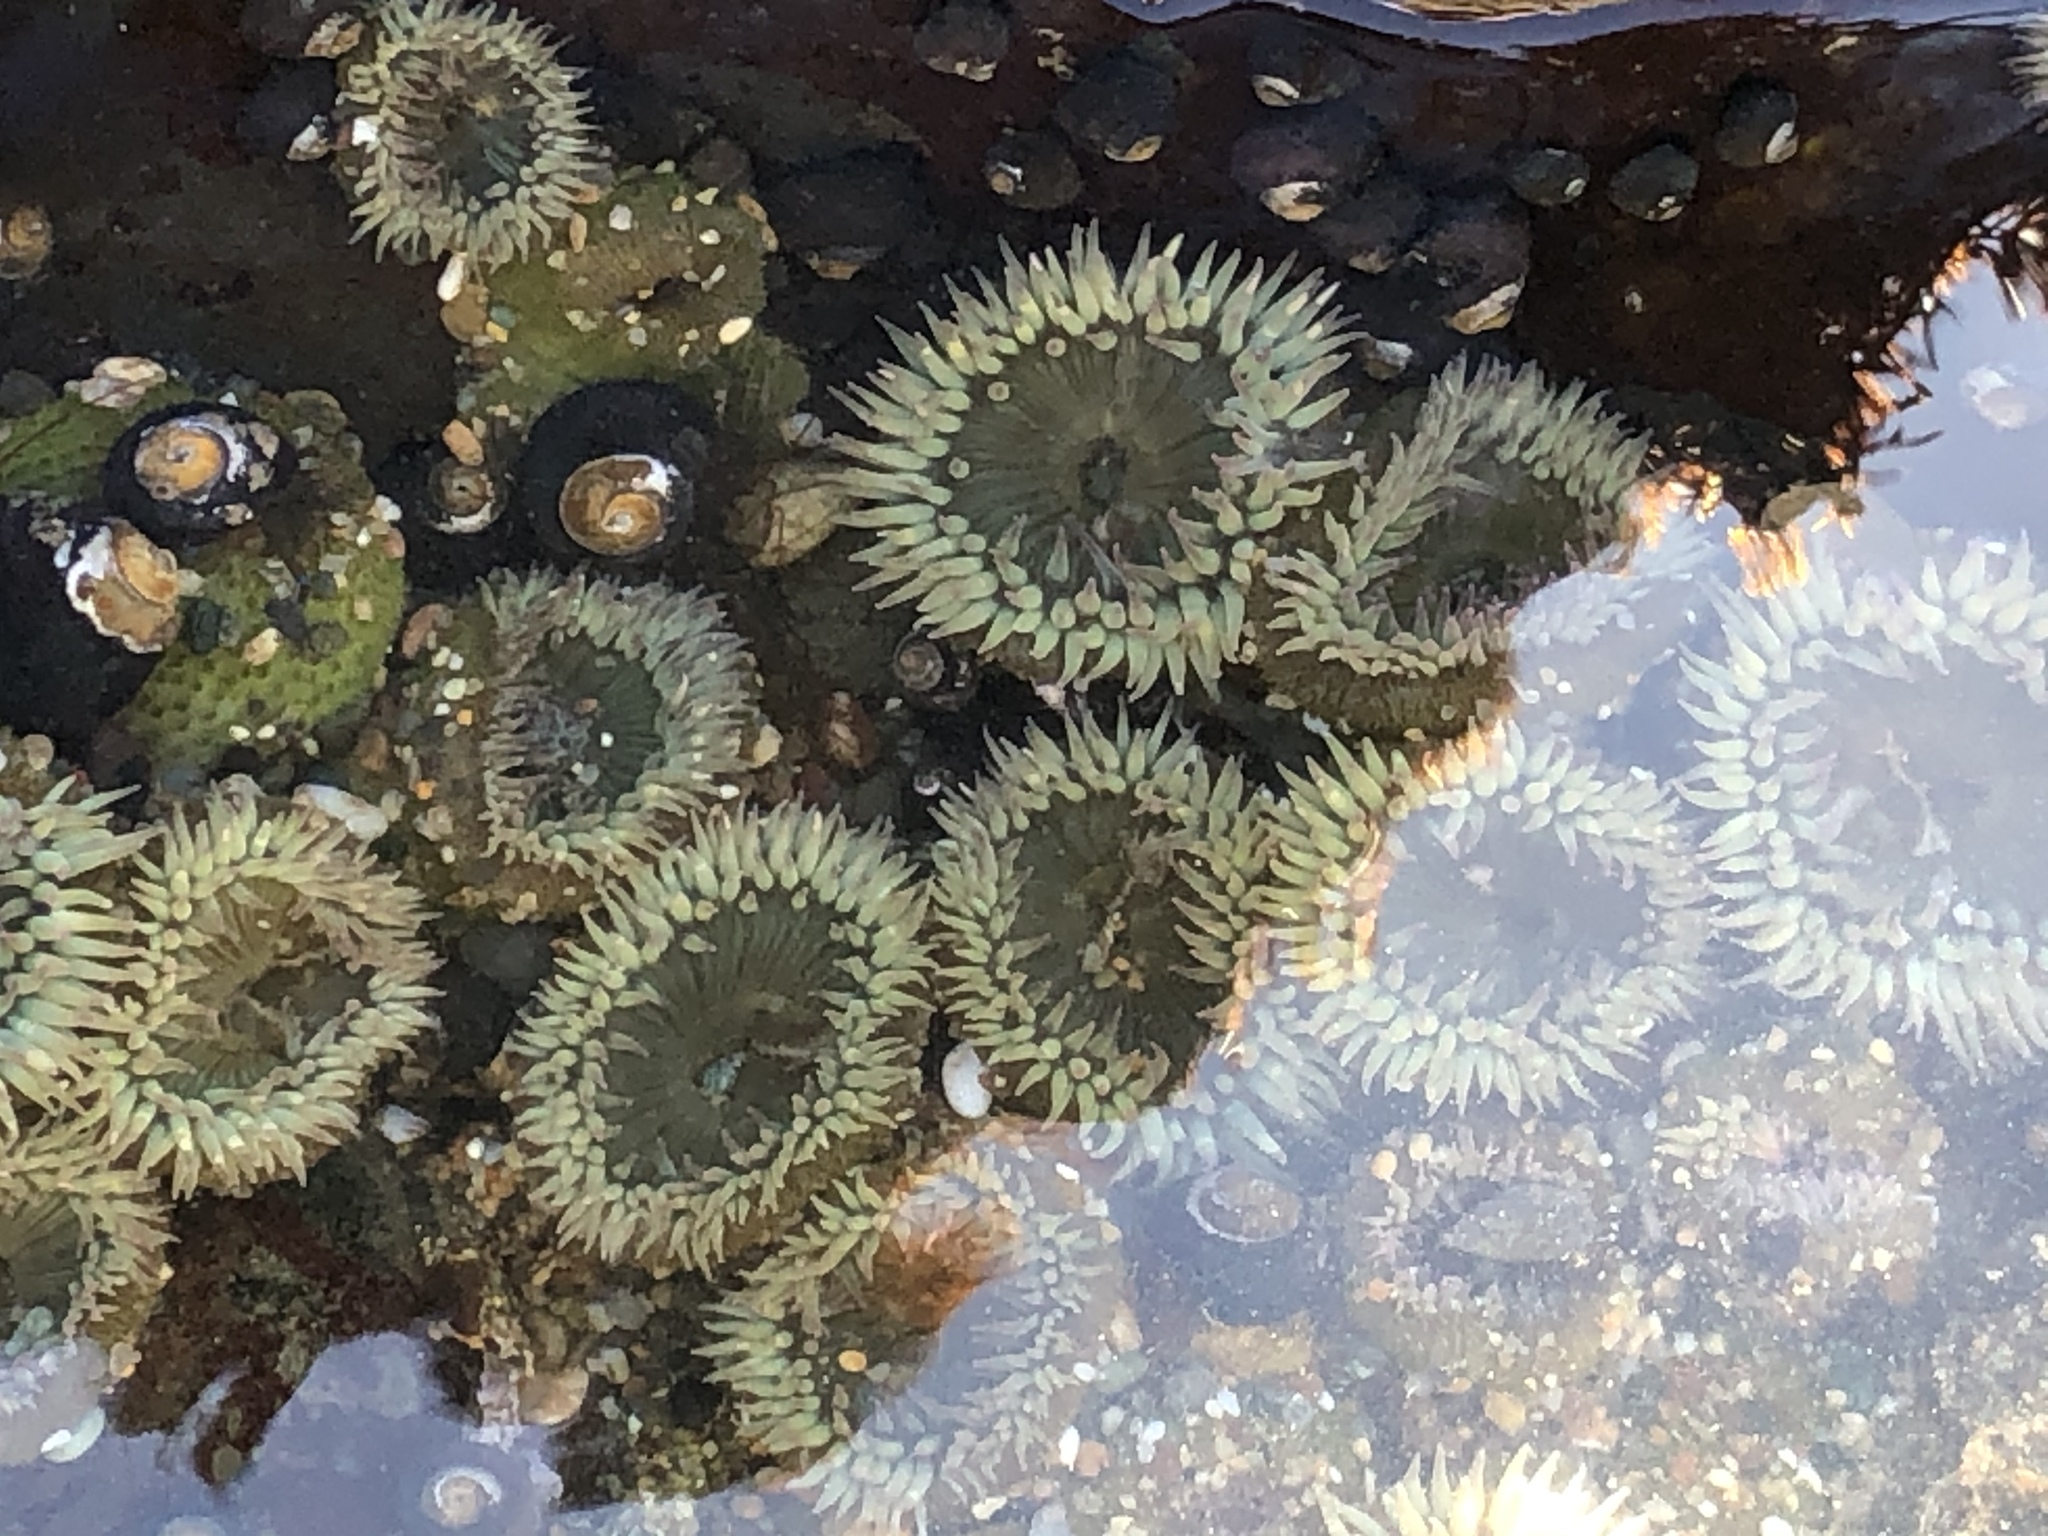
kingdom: Animalia
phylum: Cnidaria
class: Anthozoa
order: Actiniaria
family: Actiniidae
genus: Anthopleura
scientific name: Anthopleura elegantissima
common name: Clonal anemone
